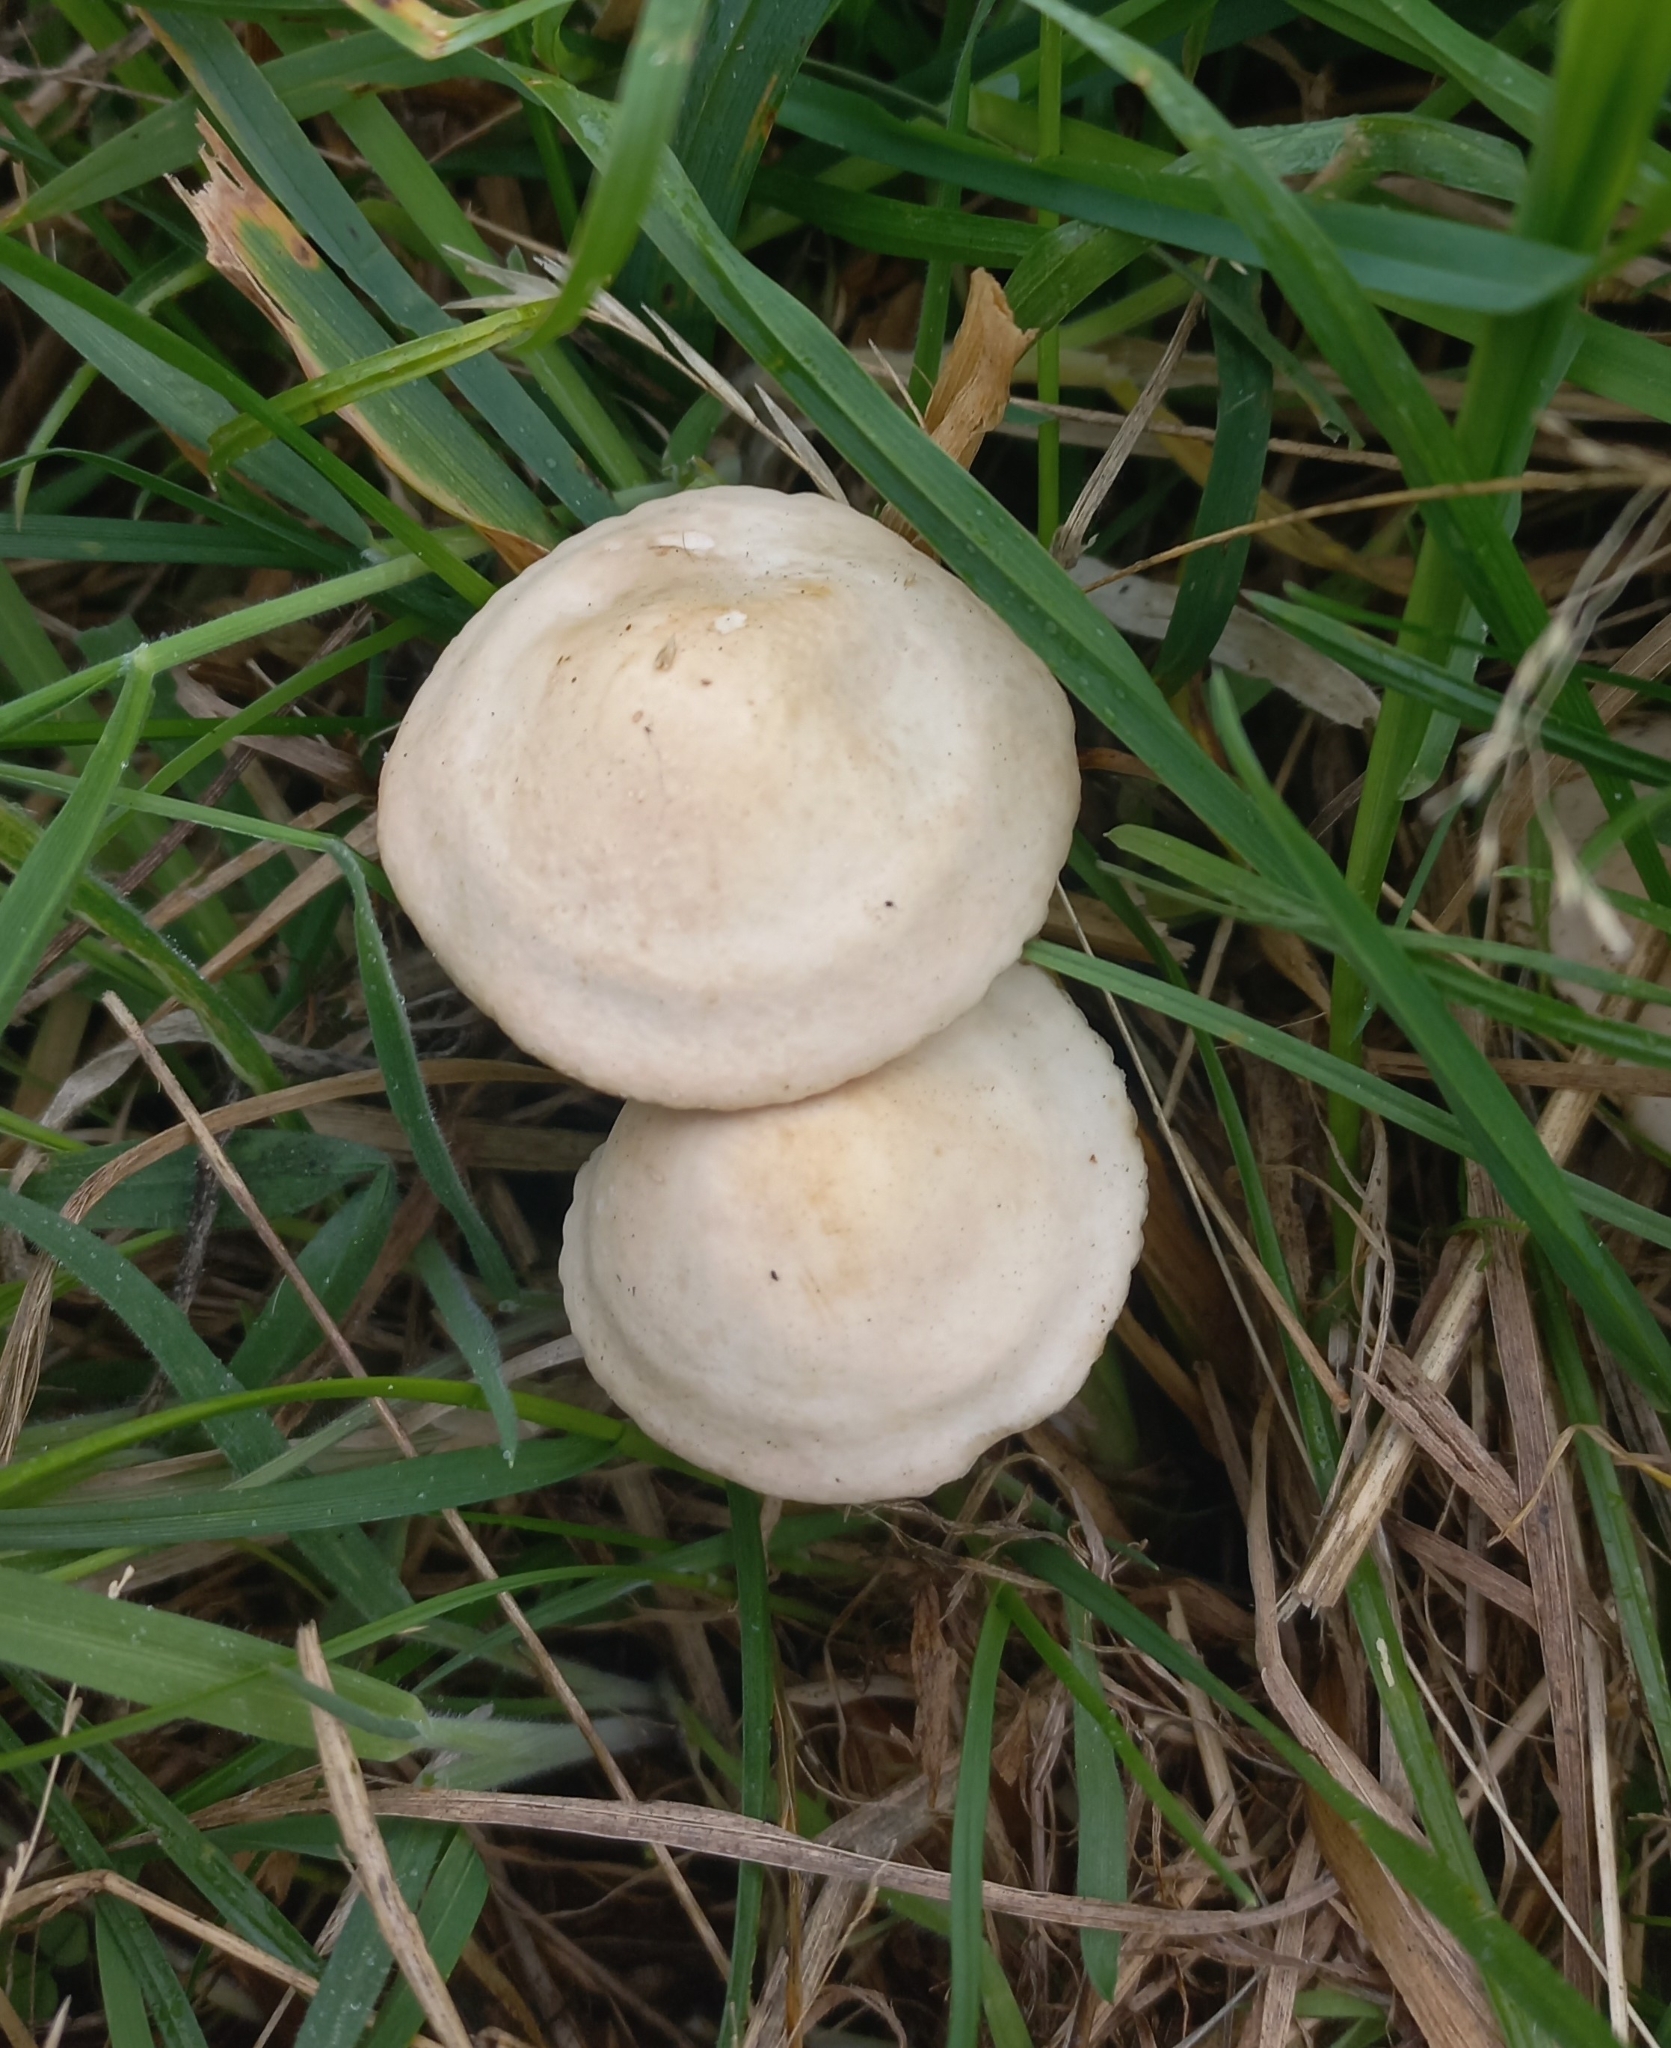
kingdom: Fungi
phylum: Basidiomycota
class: Agaricomycetes
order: Agaricales
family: Marasmiaceae
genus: Marasmius
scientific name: Marasmius oreades
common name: Fairy ring champignon
